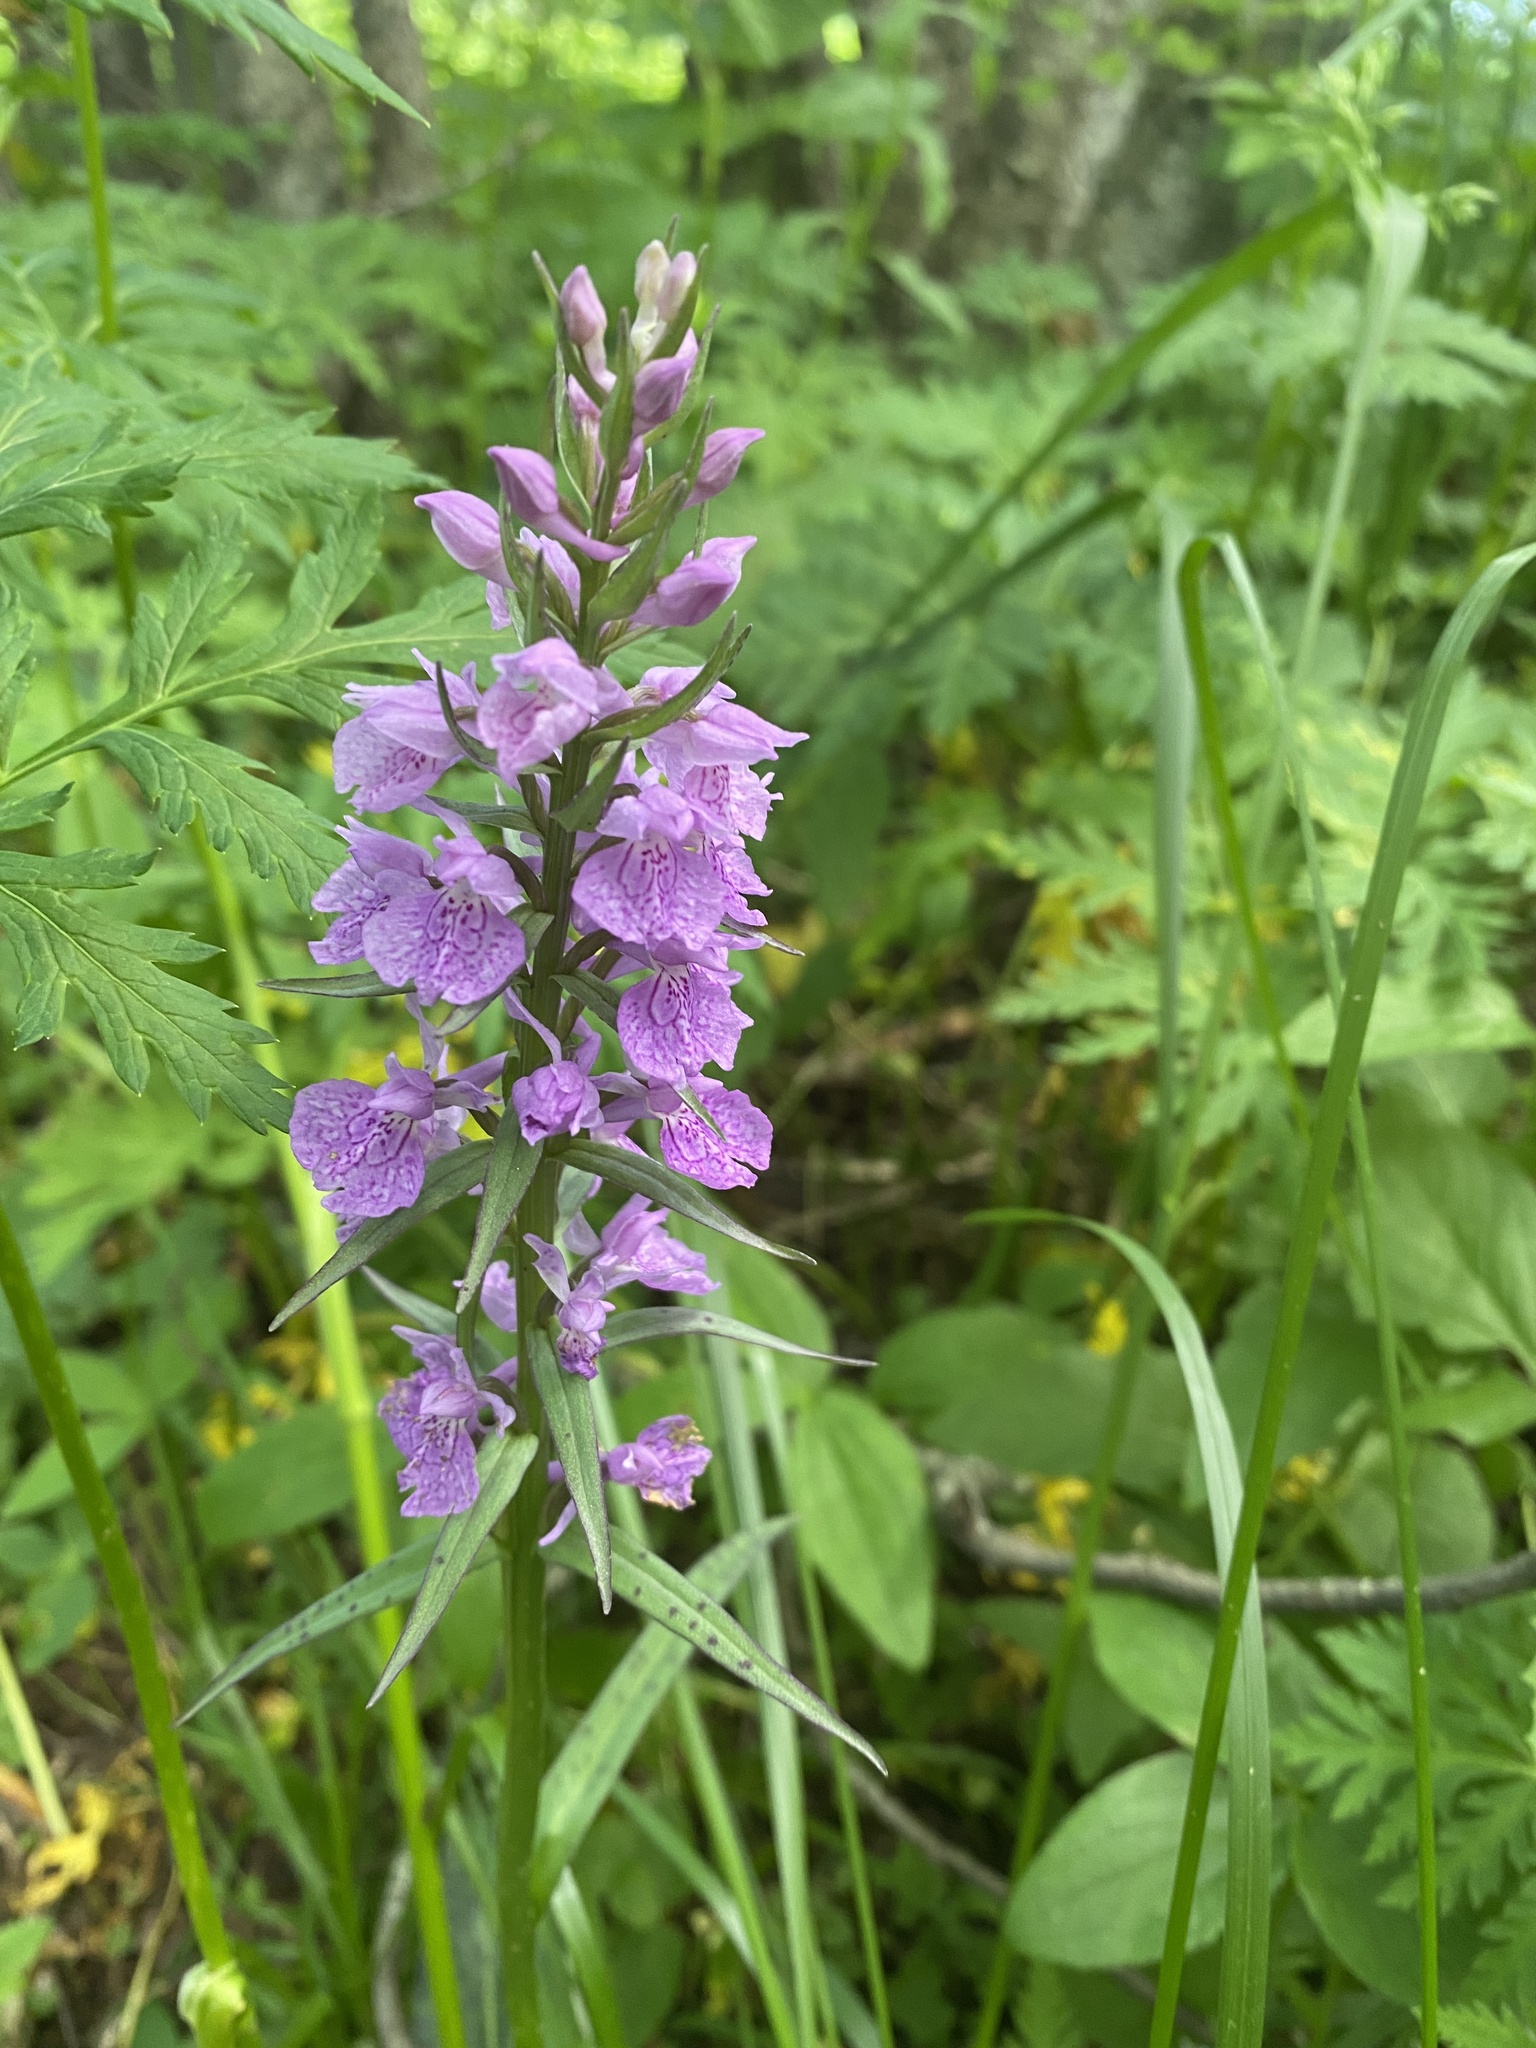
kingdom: Plantae
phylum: Tracheophyta
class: Liliopsida
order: Asparagales
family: Orchidaceae
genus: Dactylorhiza
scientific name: Dactylorhiza urvilleana
